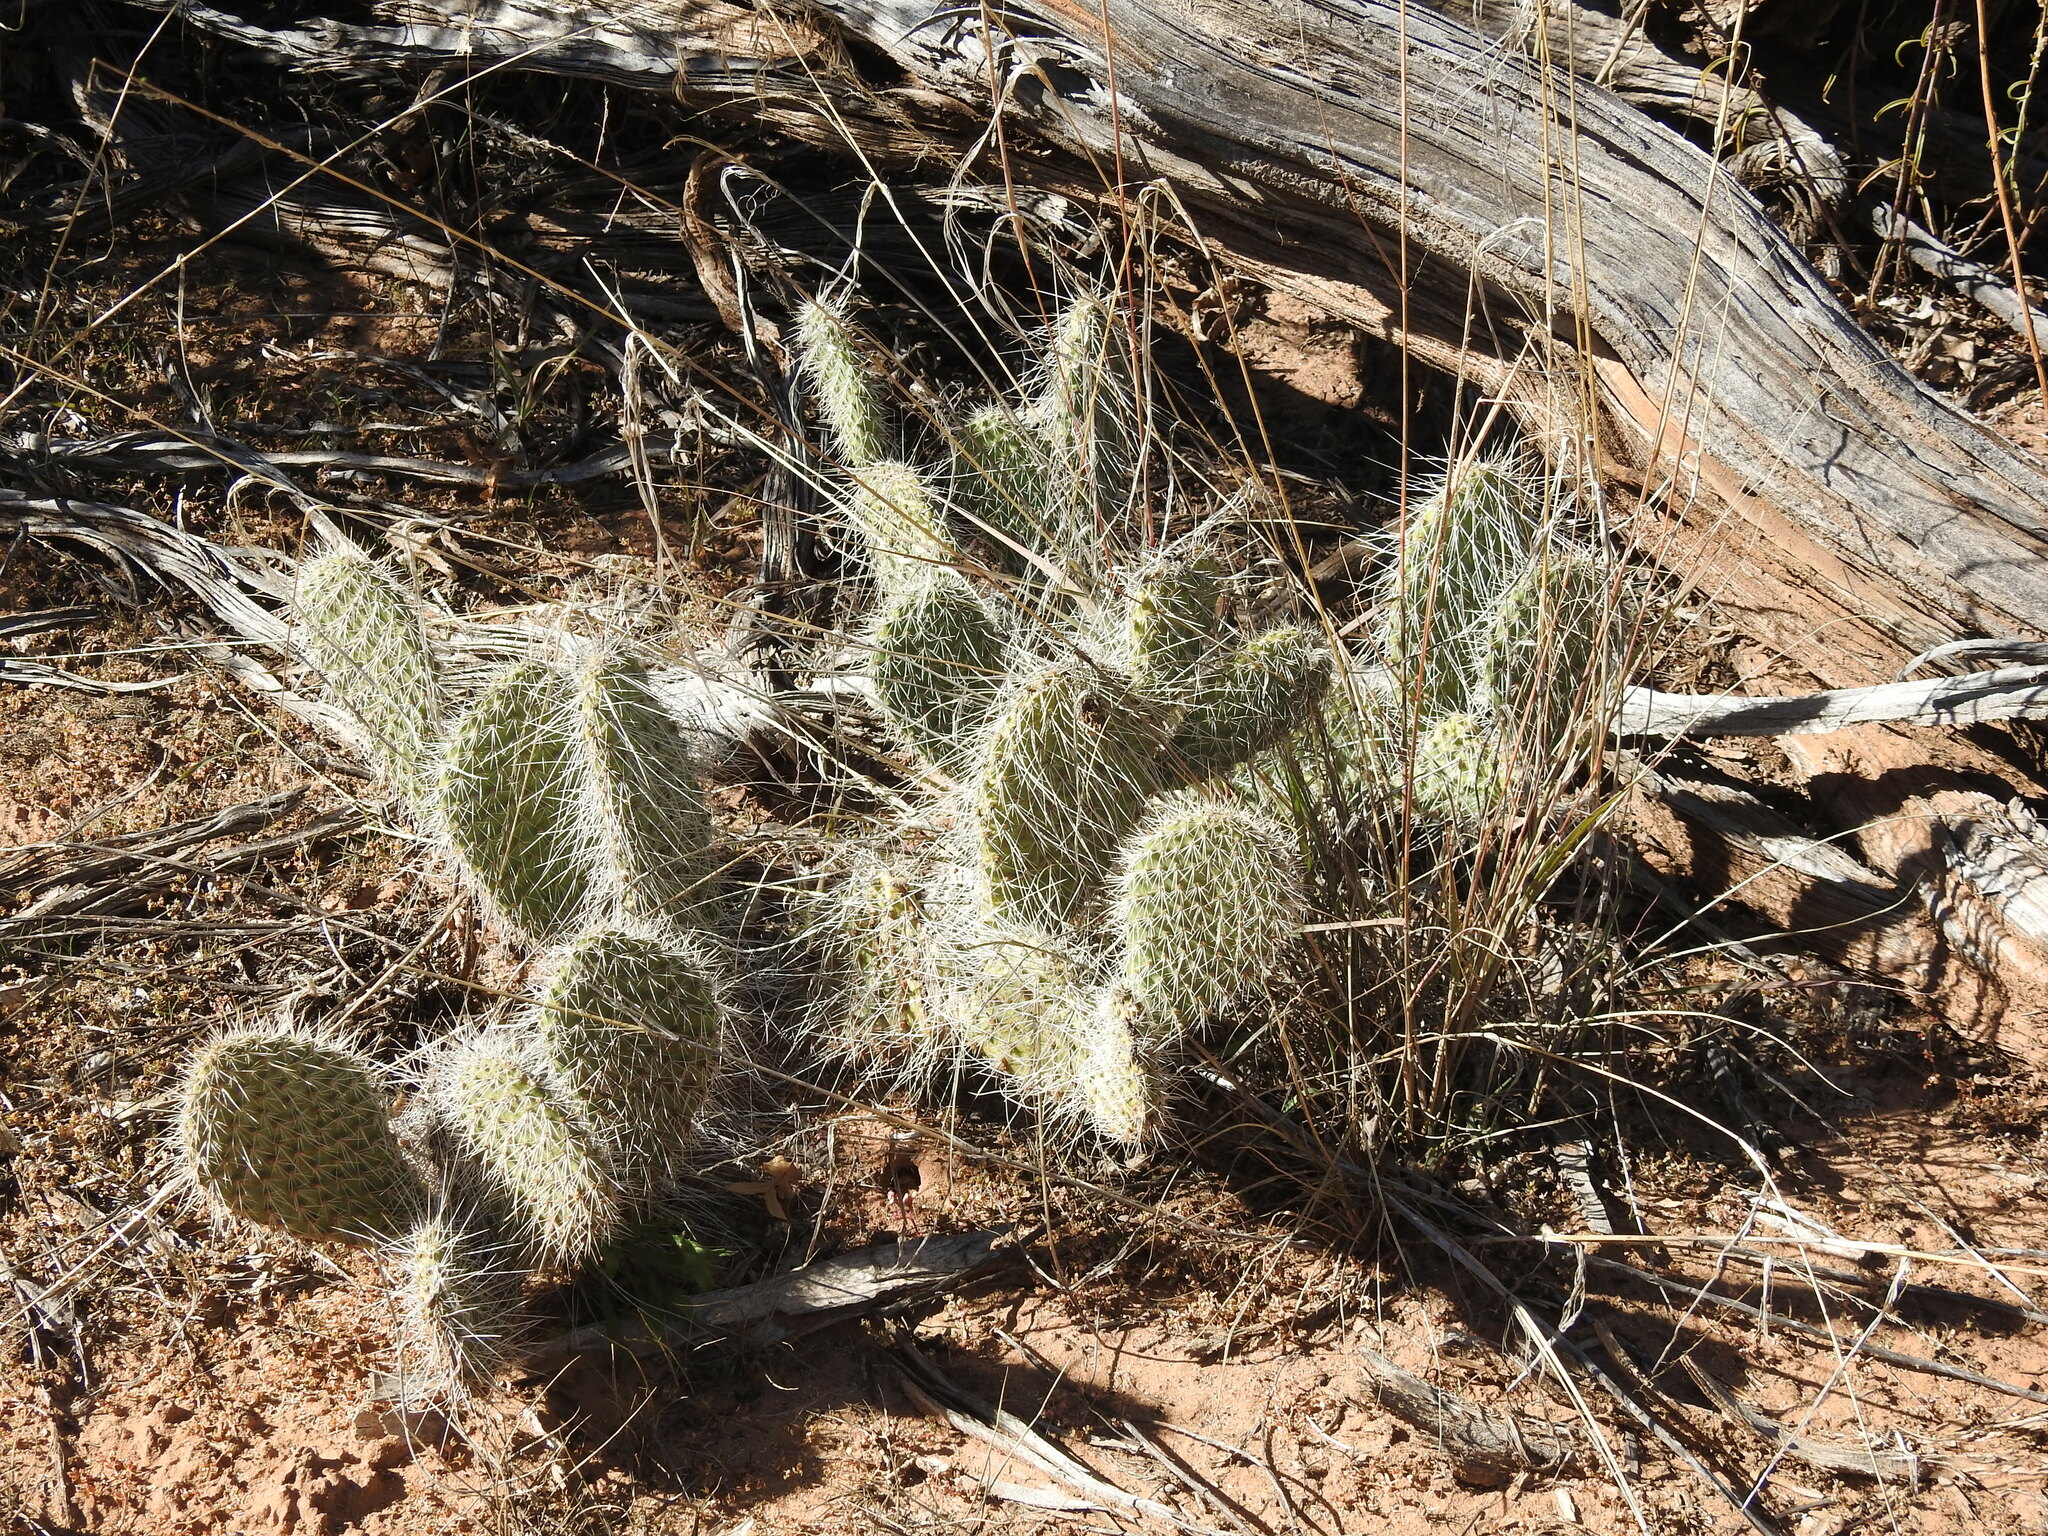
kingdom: Plantae
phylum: Tracheophyta
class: Magnoliopsida
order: Caryophyllales
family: Cactaceae
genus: Opuntia
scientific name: Opuntia polyacantha
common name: Plains prickly-pear
